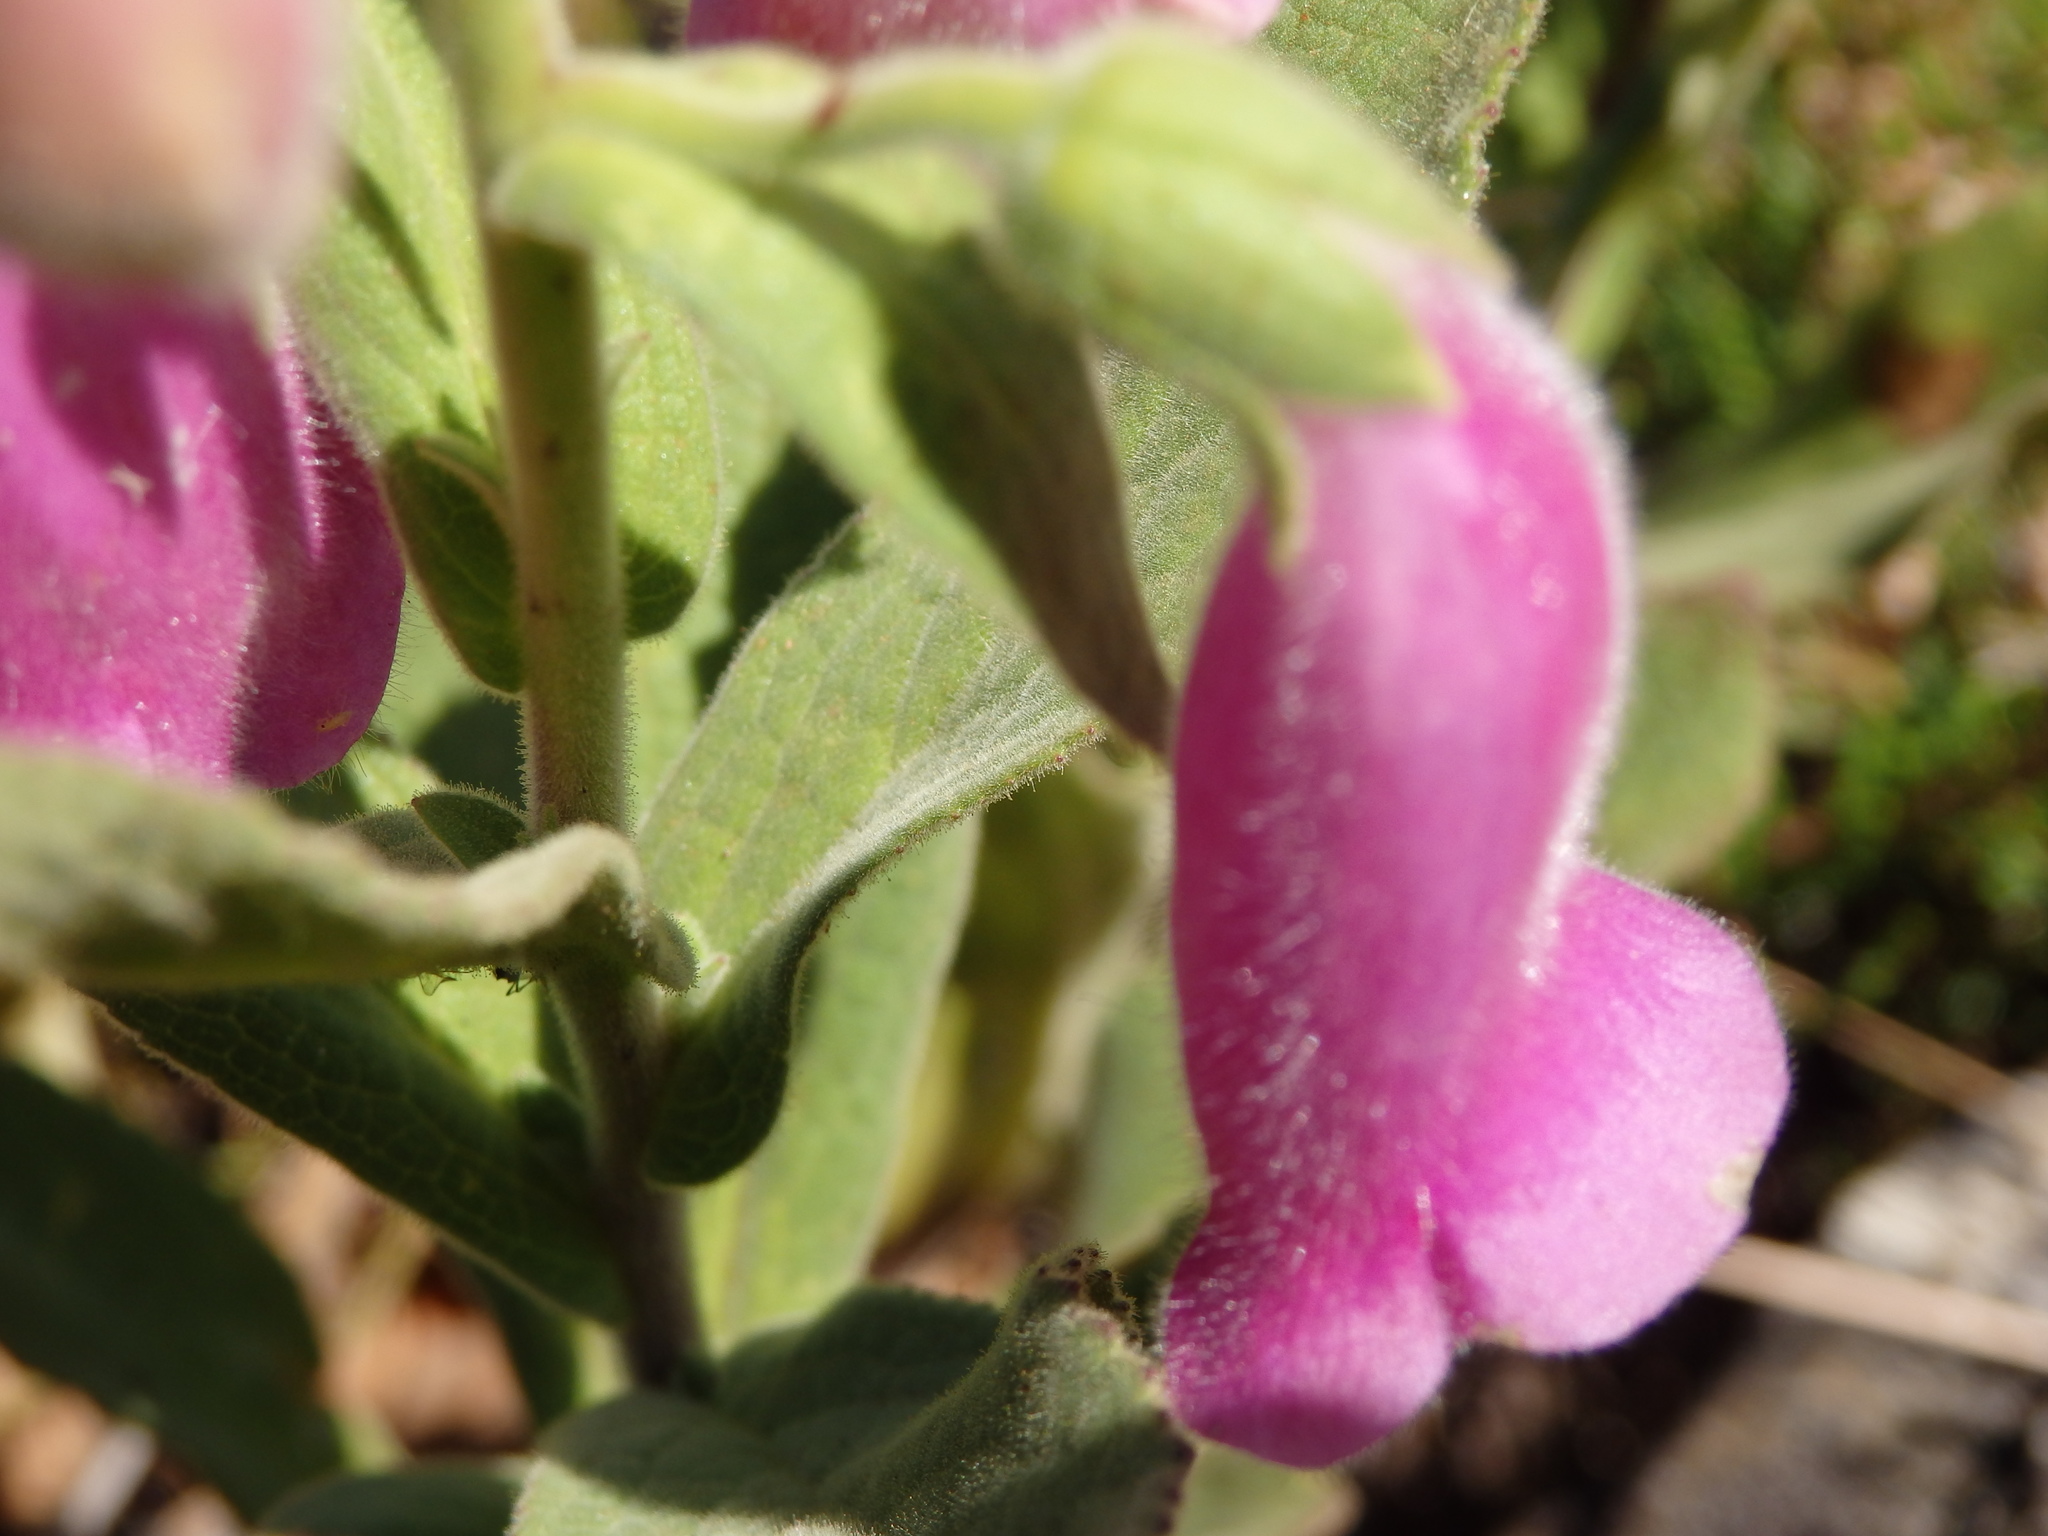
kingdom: Plantae
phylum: Tracheophyta
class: Magnoliopsida
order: Lamiales
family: Plantaginaceae
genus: Digitalis
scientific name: Digitalis thapsi
